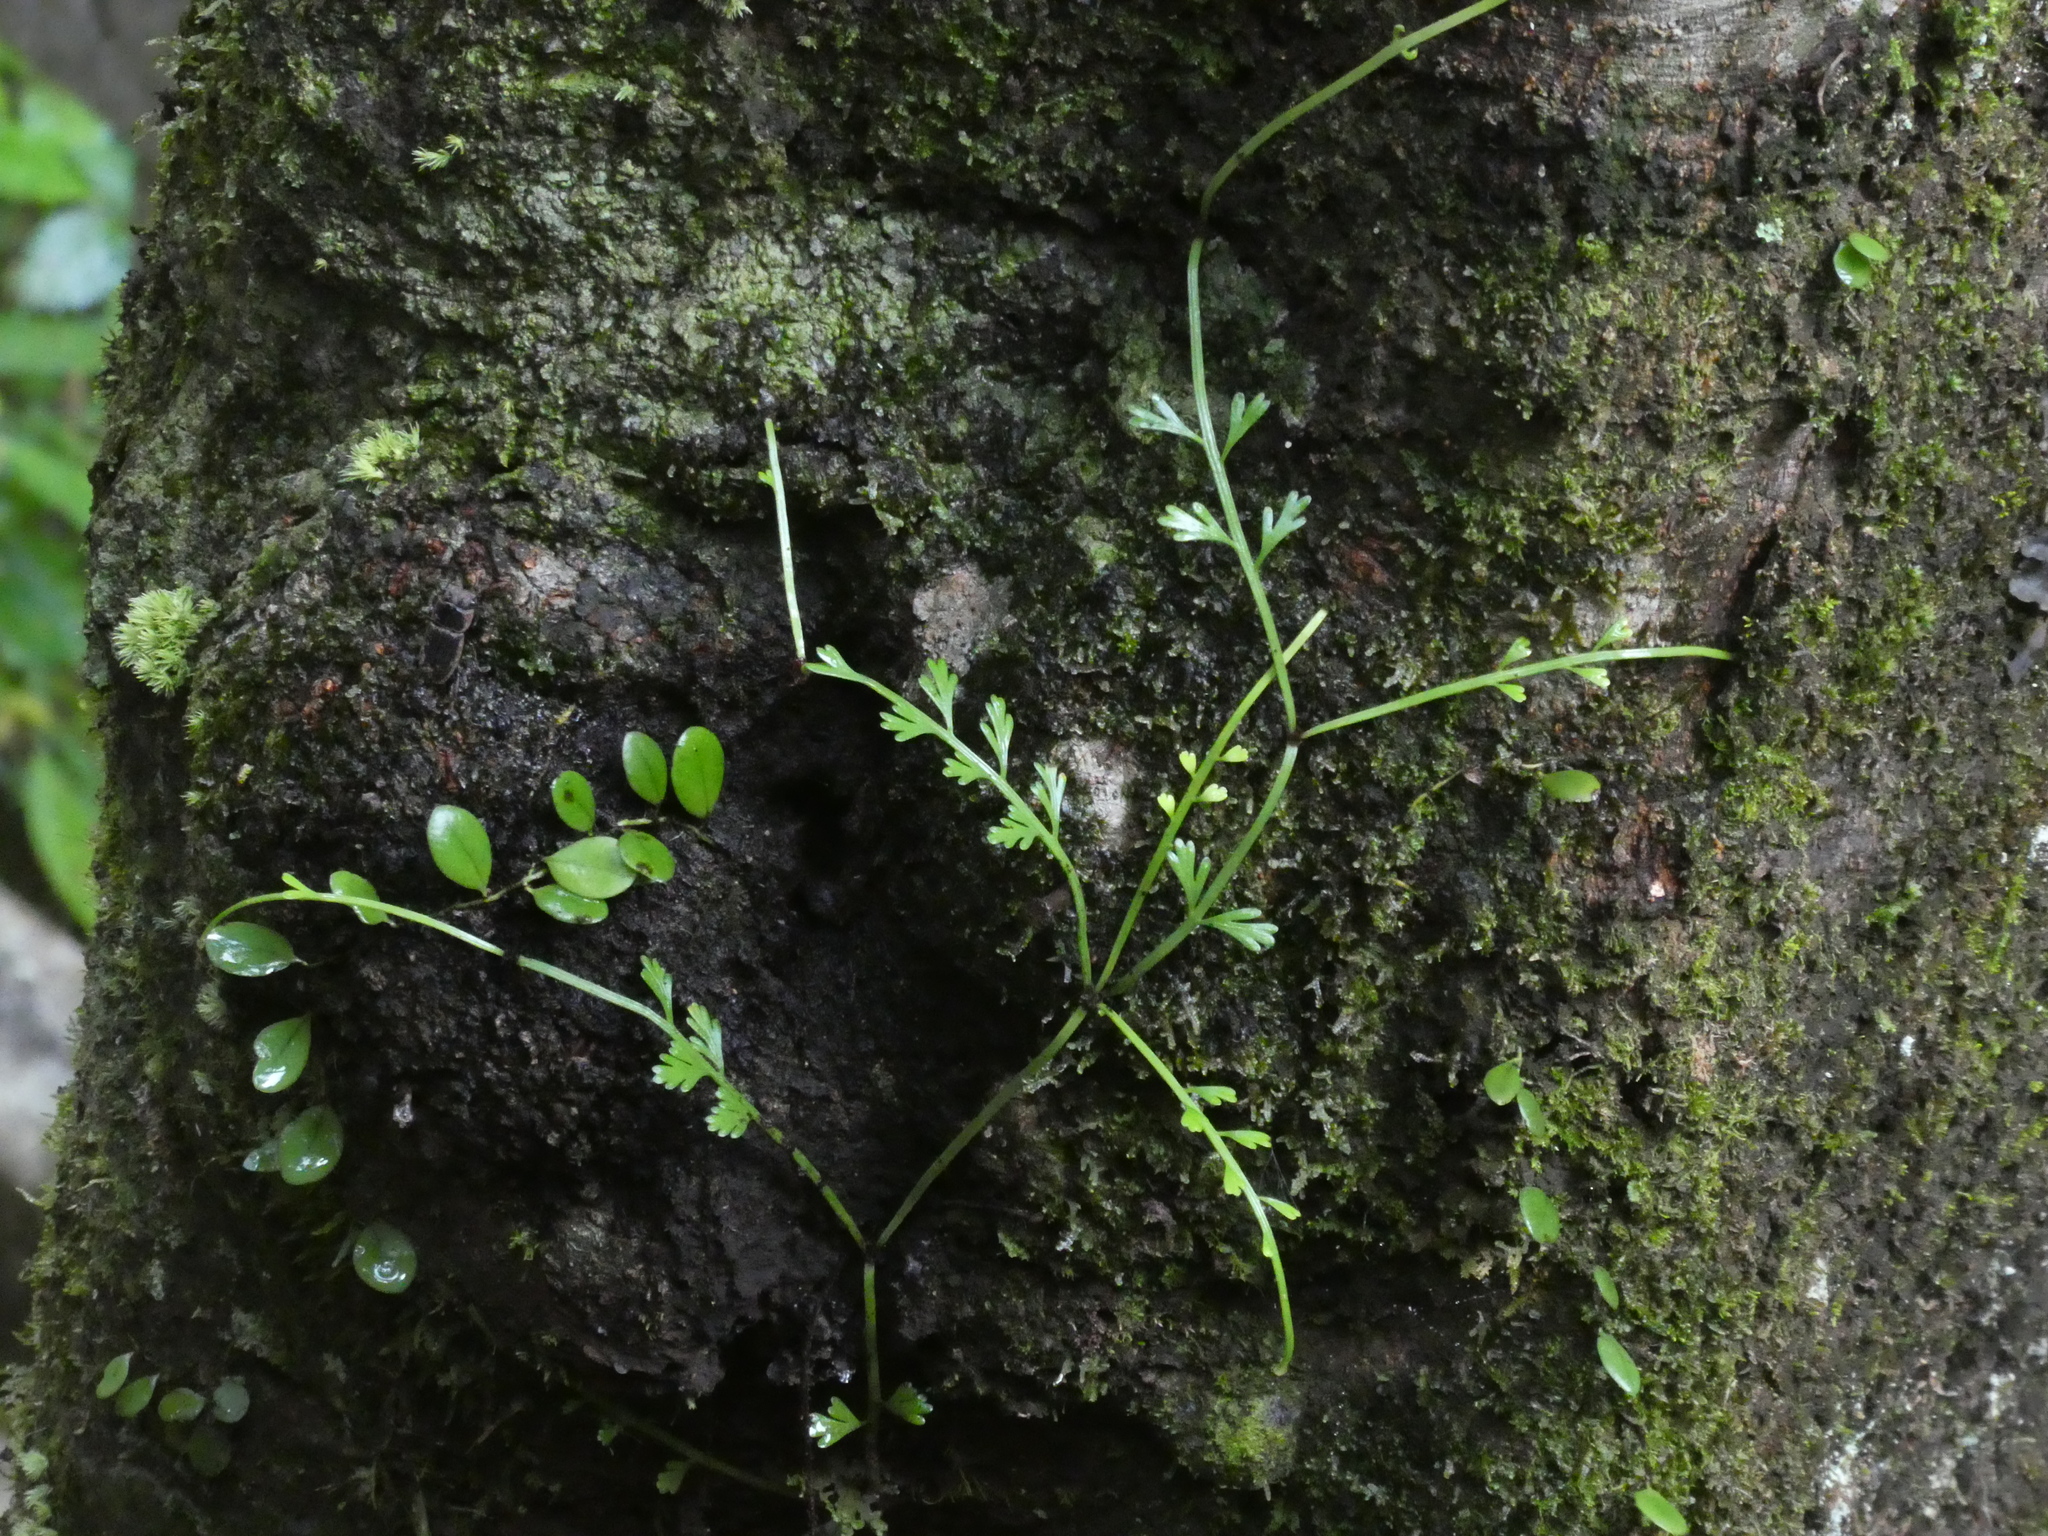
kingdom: Plantae
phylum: Tracheophyta
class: Polypodiopsida
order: Polypodiales
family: Aspleniaceae
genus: Asplenium
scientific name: Asplenium prolongatum
